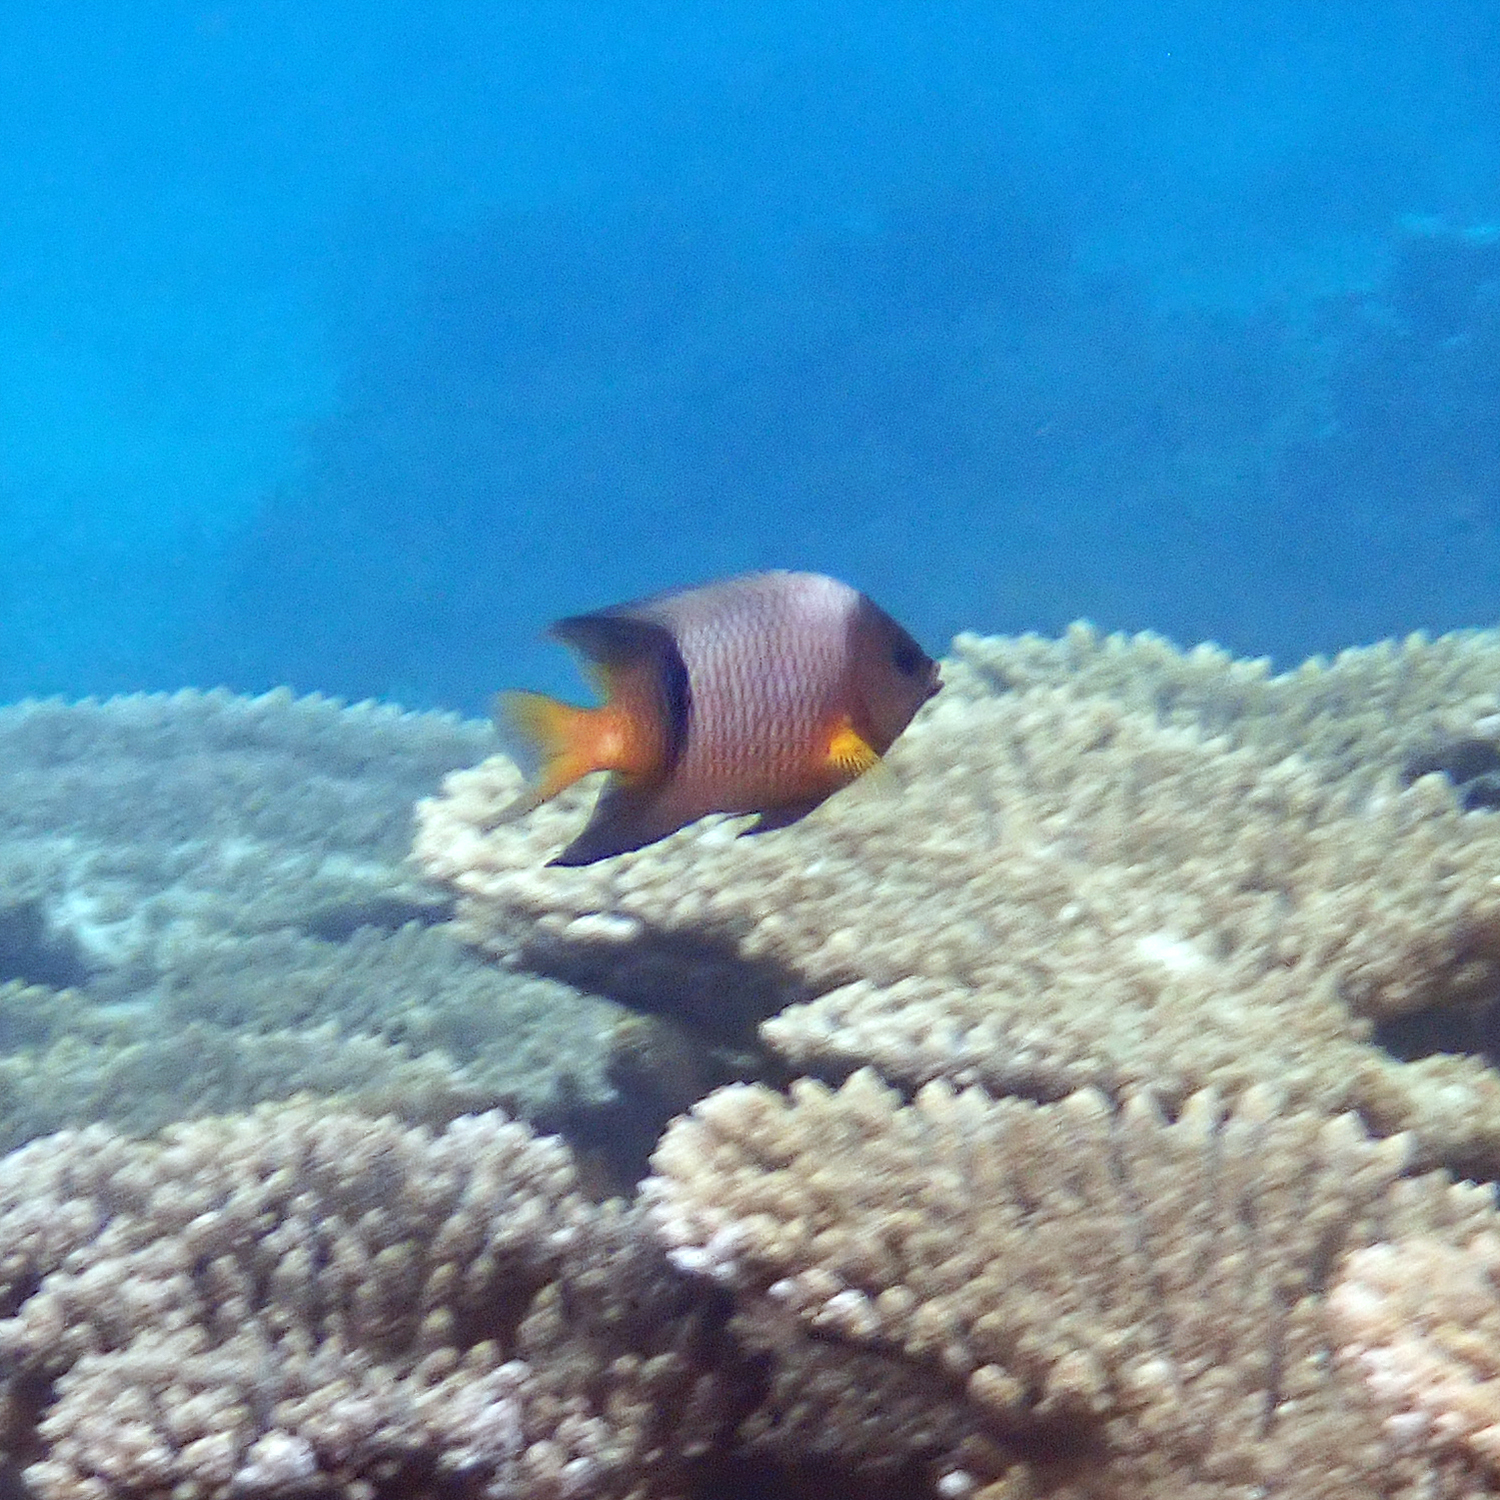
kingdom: Animalia
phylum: Chordata
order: Perciformes
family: Pomacentridae
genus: Plectroglyphidodon
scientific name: Plectroglyphidodon dickii
